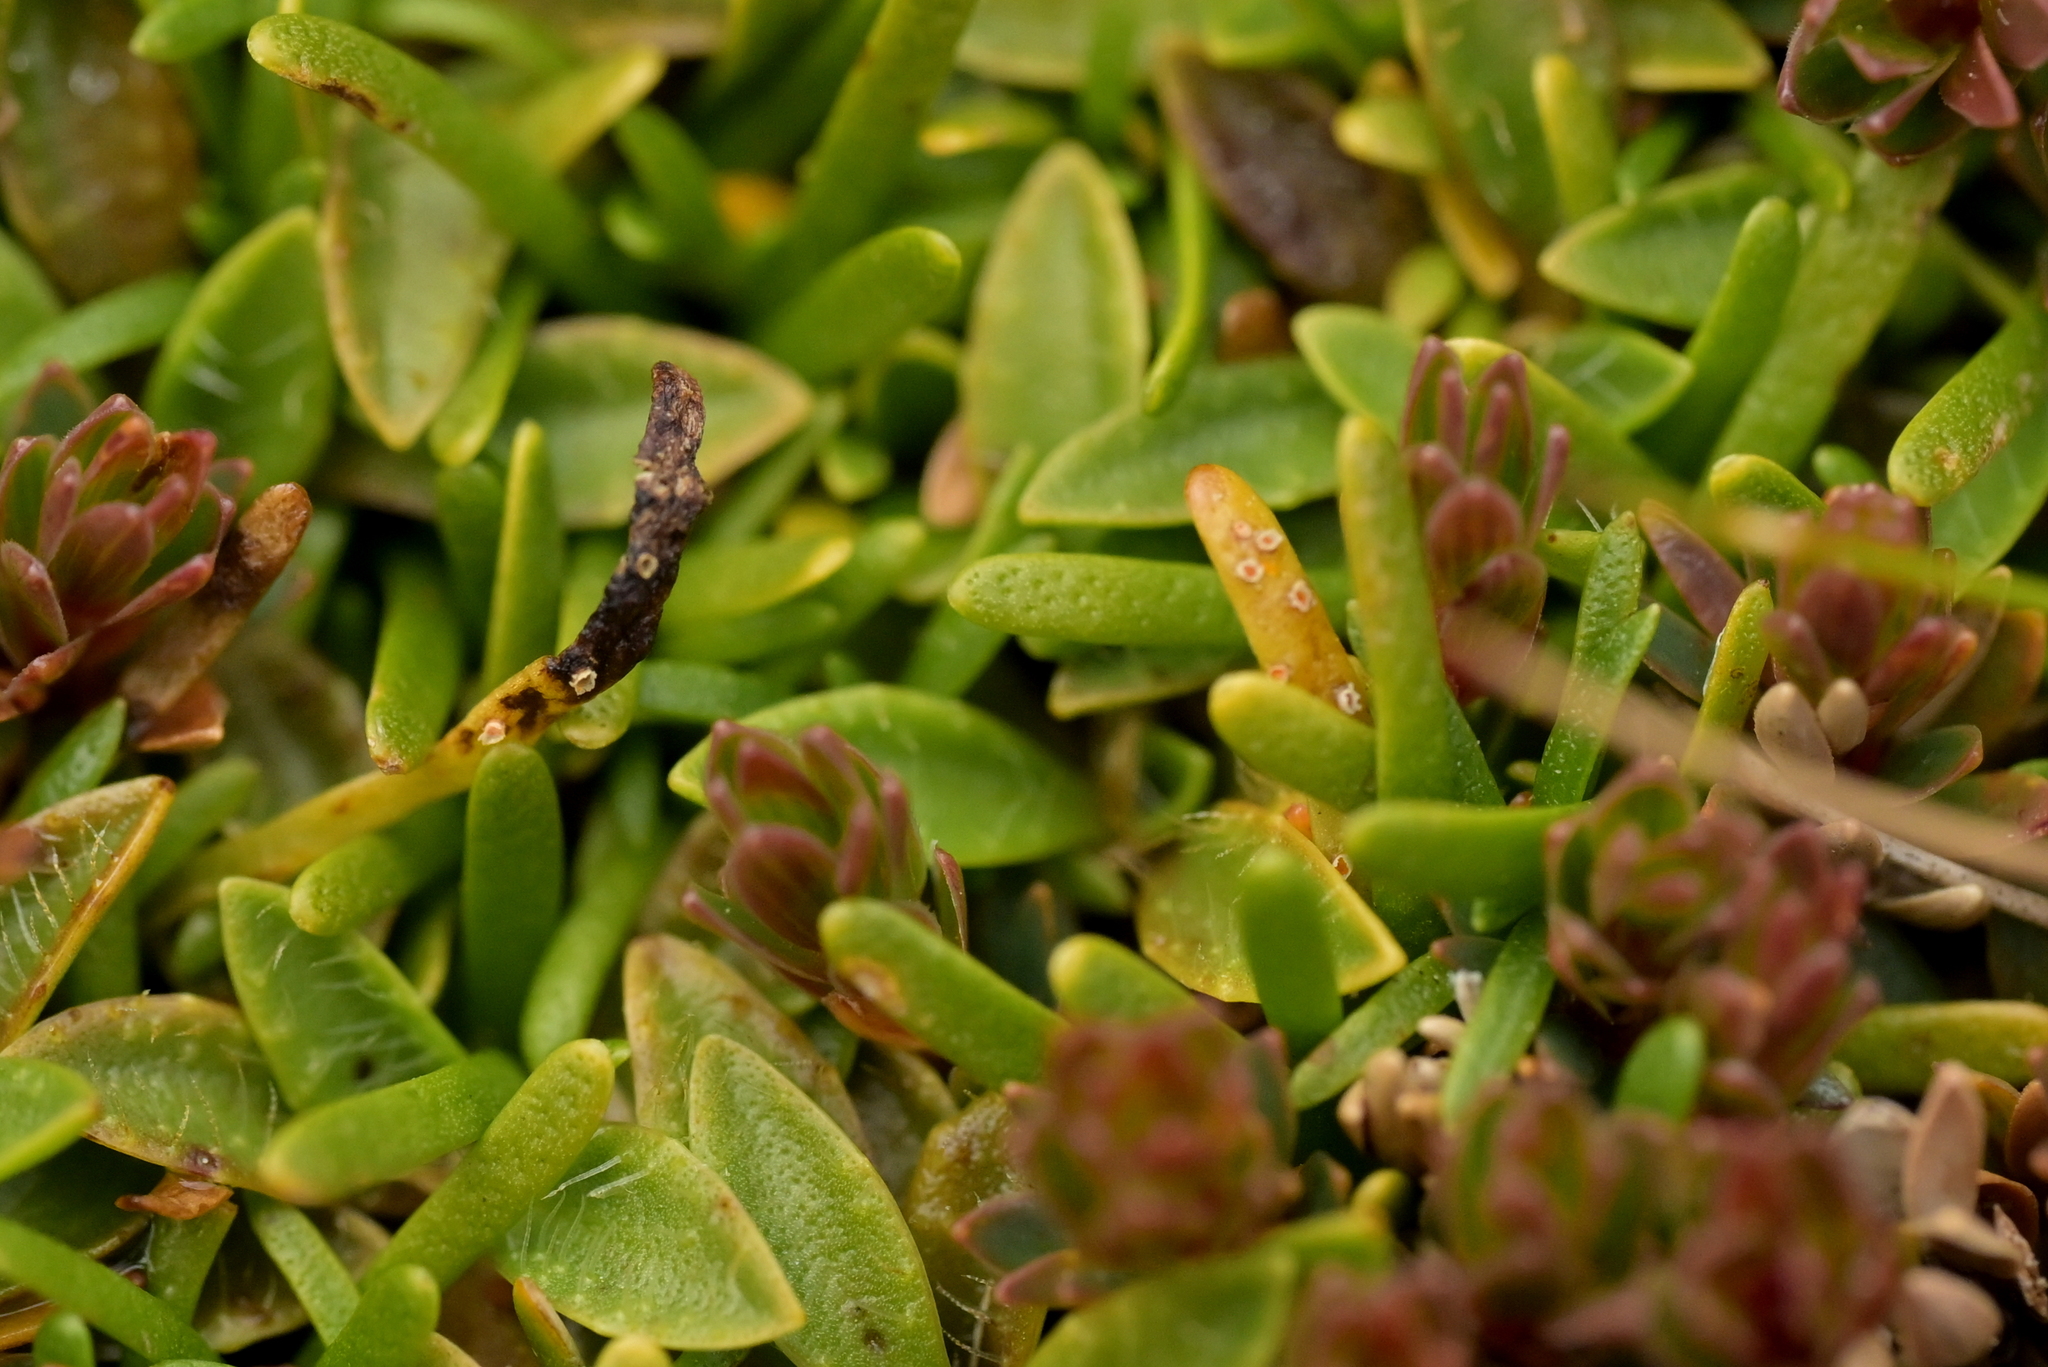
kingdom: Fungi
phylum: Basidiomycota
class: Pucciniomycetes
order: Pucciniales
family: Pucciniaceae
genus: Aecidium
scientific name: Aecidium monocystis
